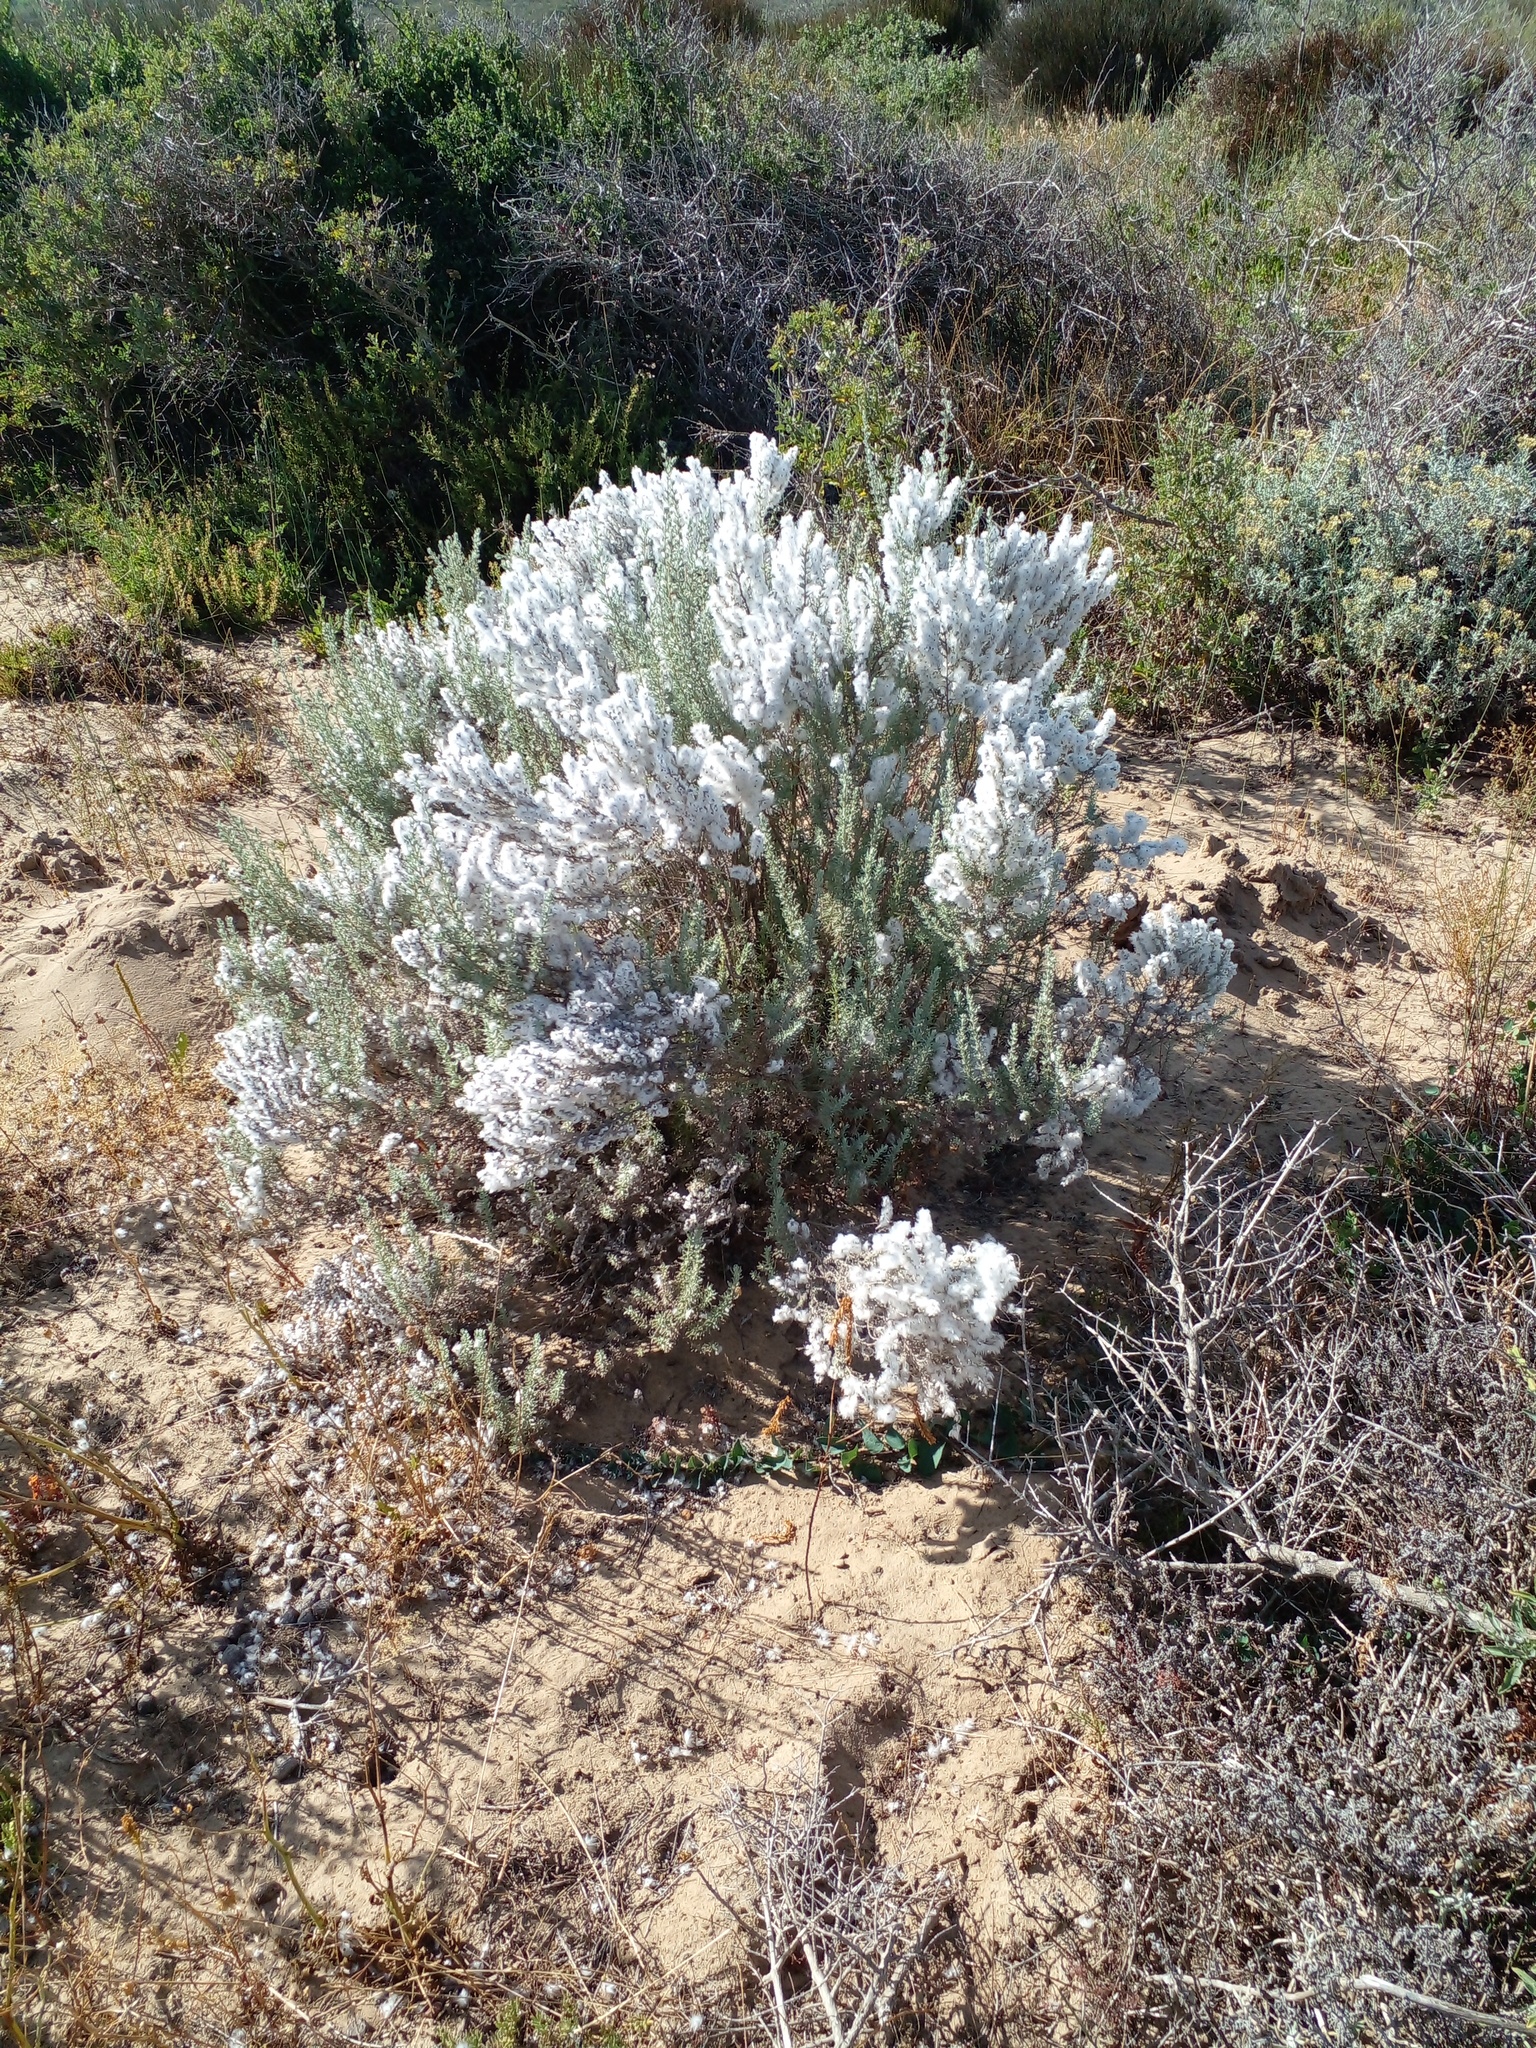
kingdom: Plantae
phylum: Tracheophyta
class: Magnoliopsida
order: Asterales
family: Asteraceae
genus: Eriocephalus
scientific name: Eriocephalus racemosus
